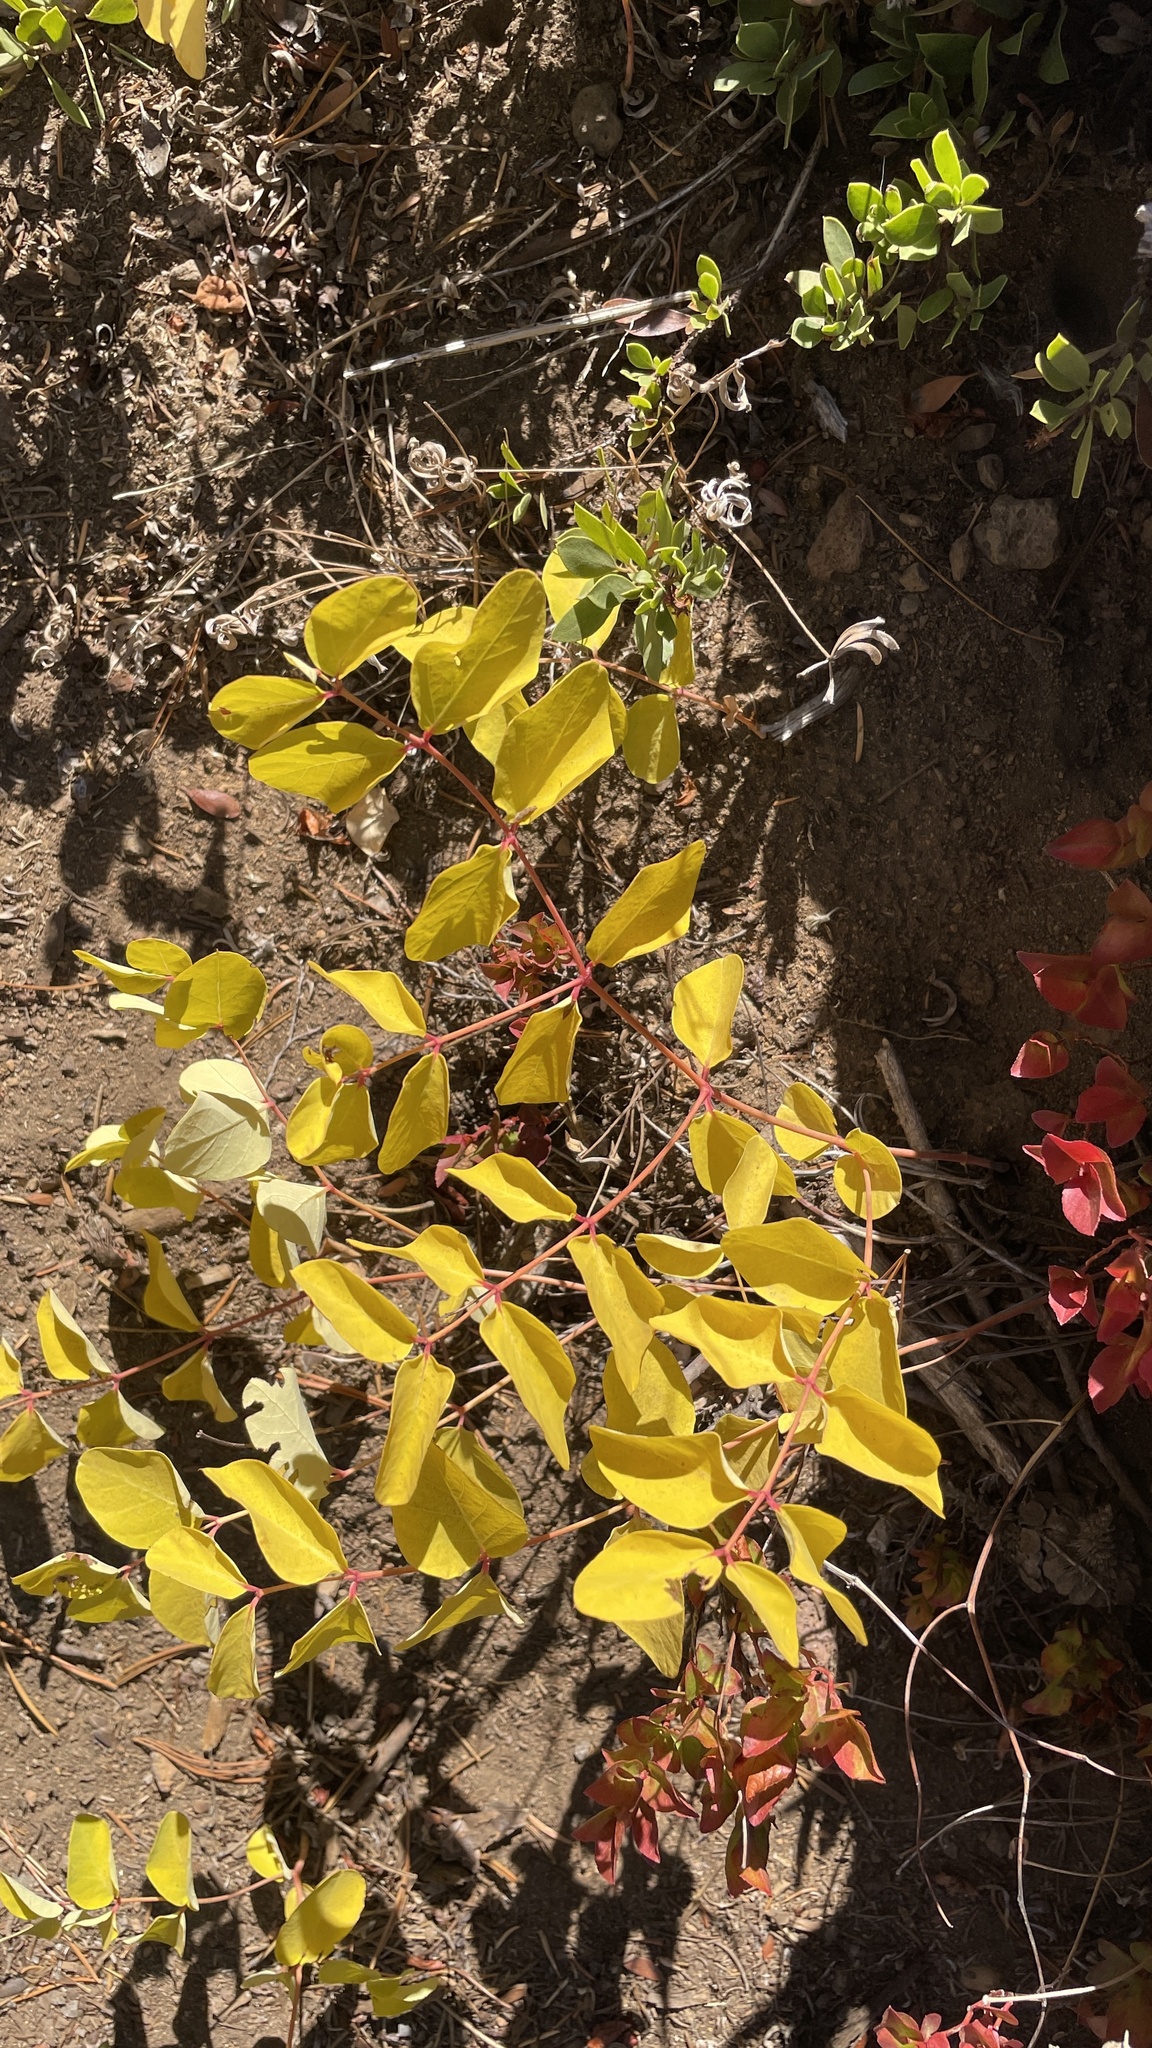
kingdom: Plantae
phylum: Tracheophyta
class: Magnoliopsida
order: Gentianales
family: Apocynaceae
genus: Apocynum
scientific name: Apocynum androsaemifolium
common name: Spreading dogbane
